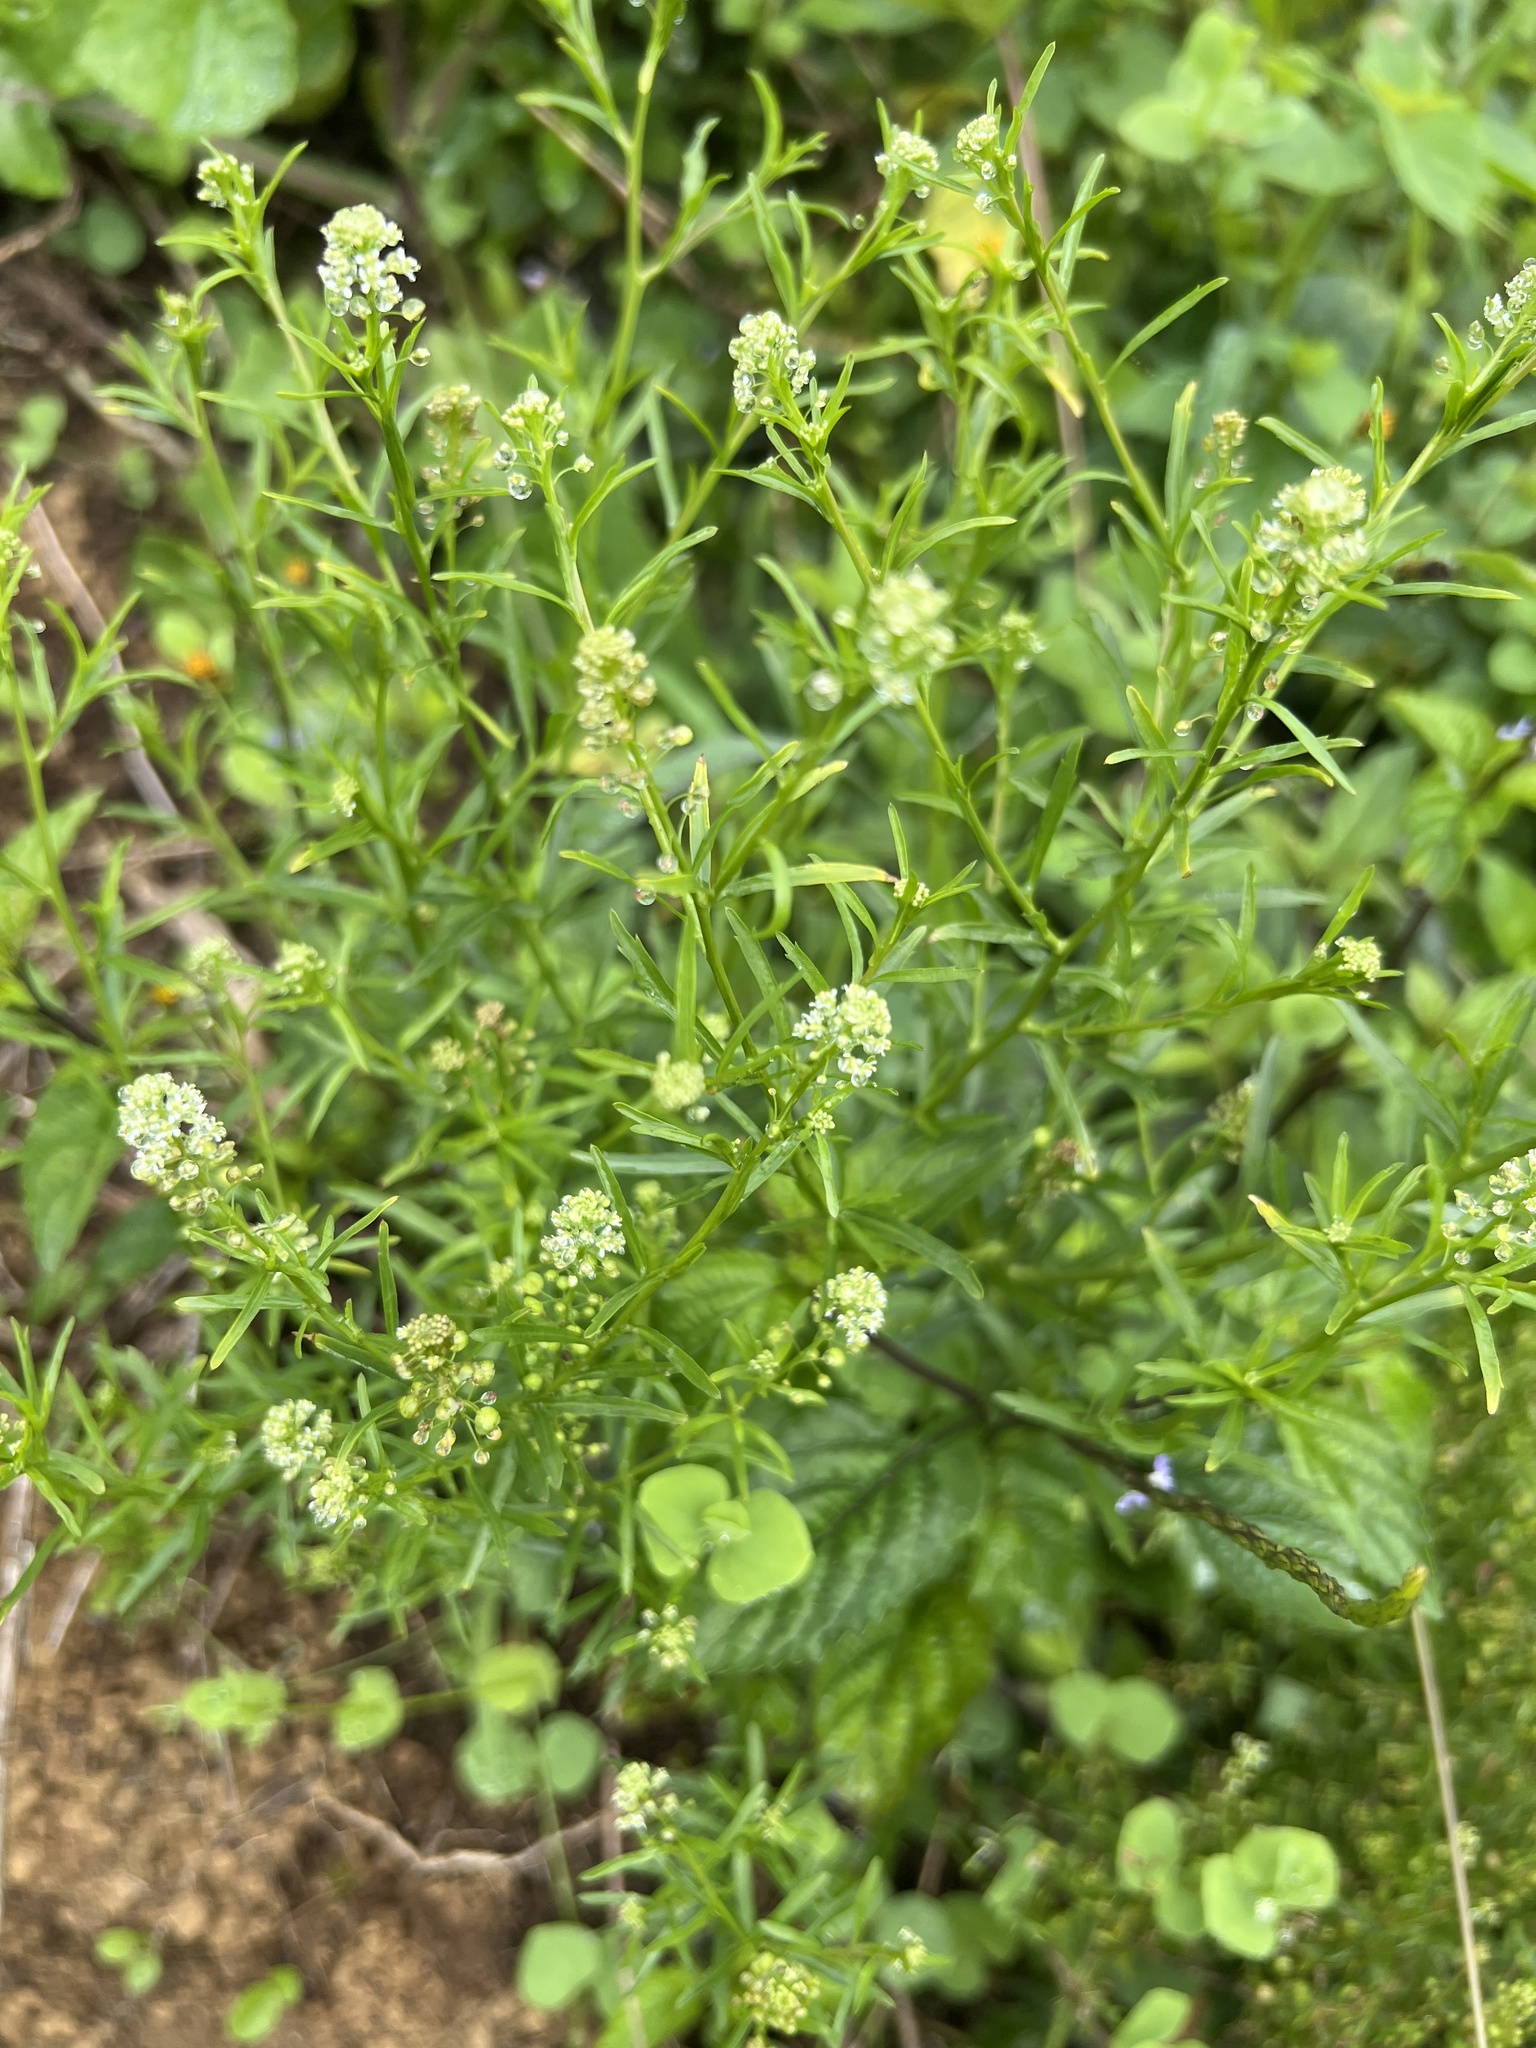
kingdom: Plantae
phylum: Tracheophyta
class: Magnoliopsida
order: Brassicales
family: Brassicaceae
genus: Lepidium
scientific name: Lepidium virginicum
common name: Least pepperwort
